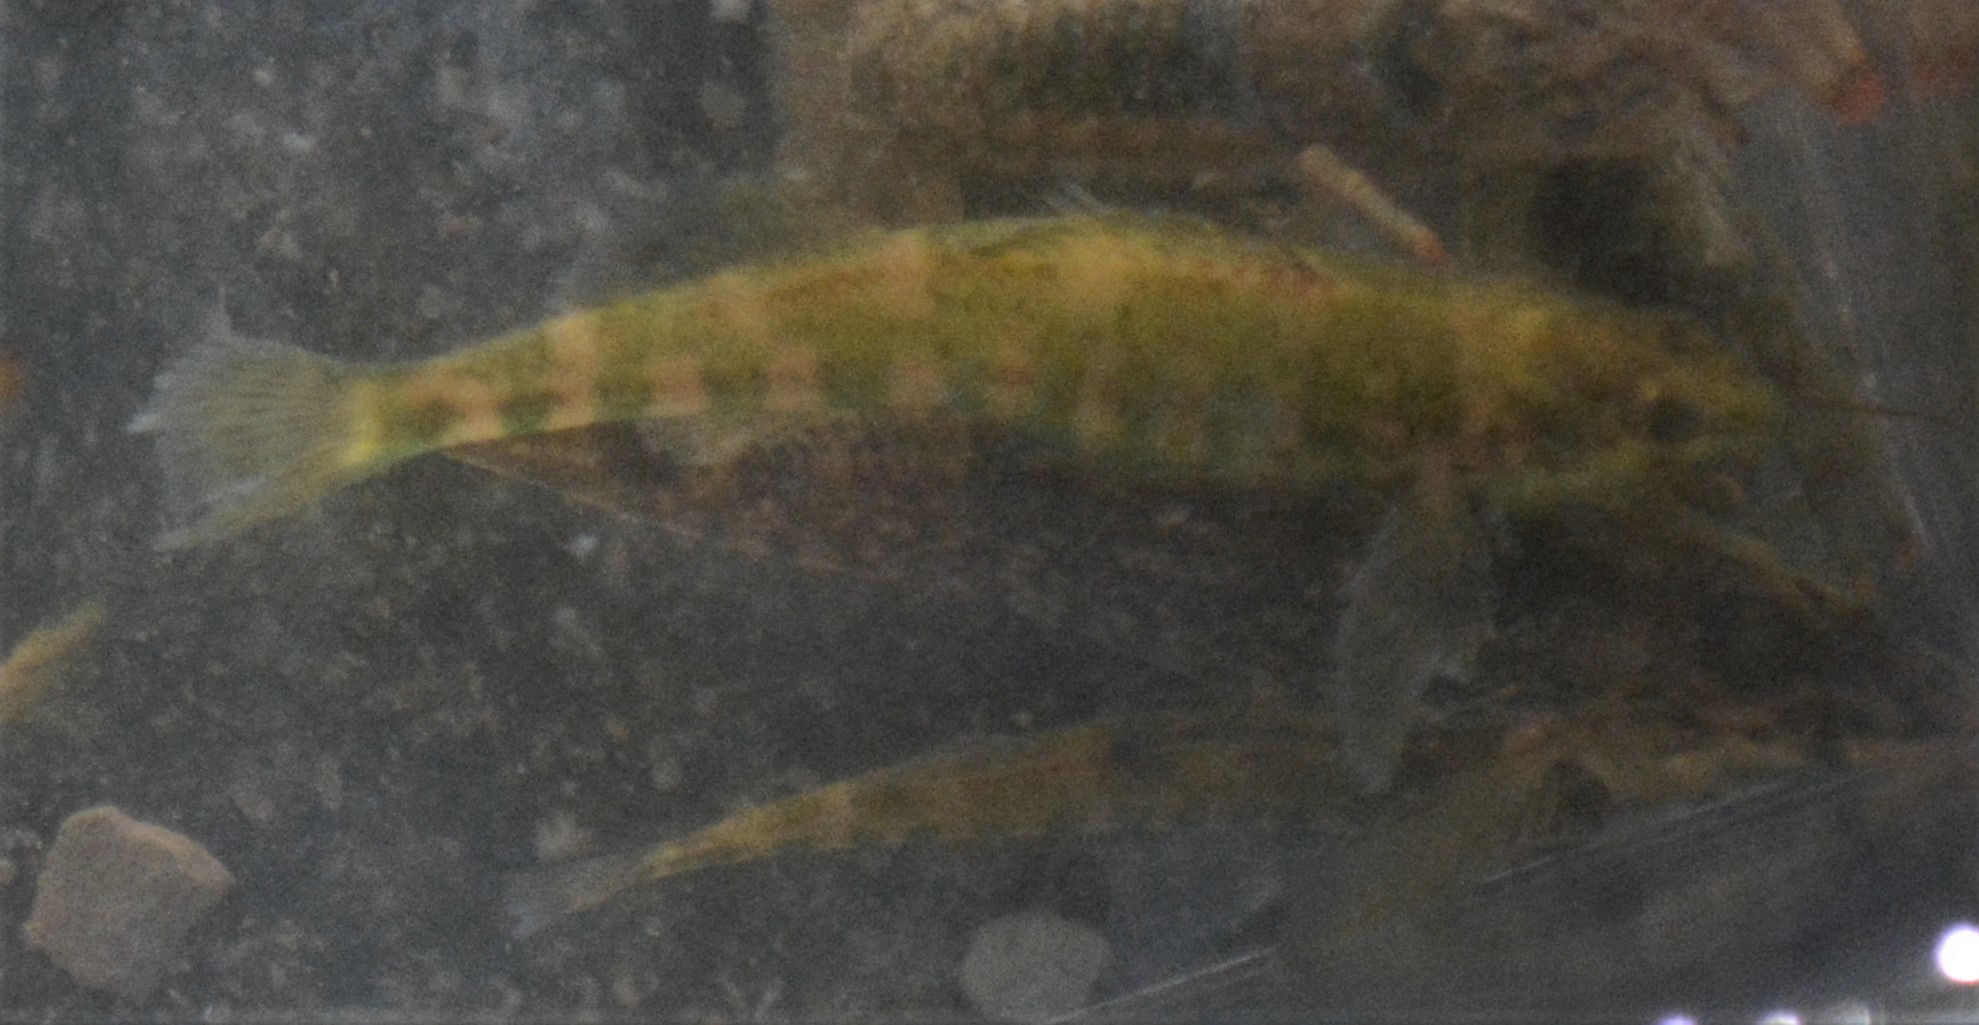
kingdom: Animalia
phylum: Chordata
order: Perciformes
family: Percidae
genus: Etheostoma
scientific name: Etheostoma zonale
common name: Banded darter
